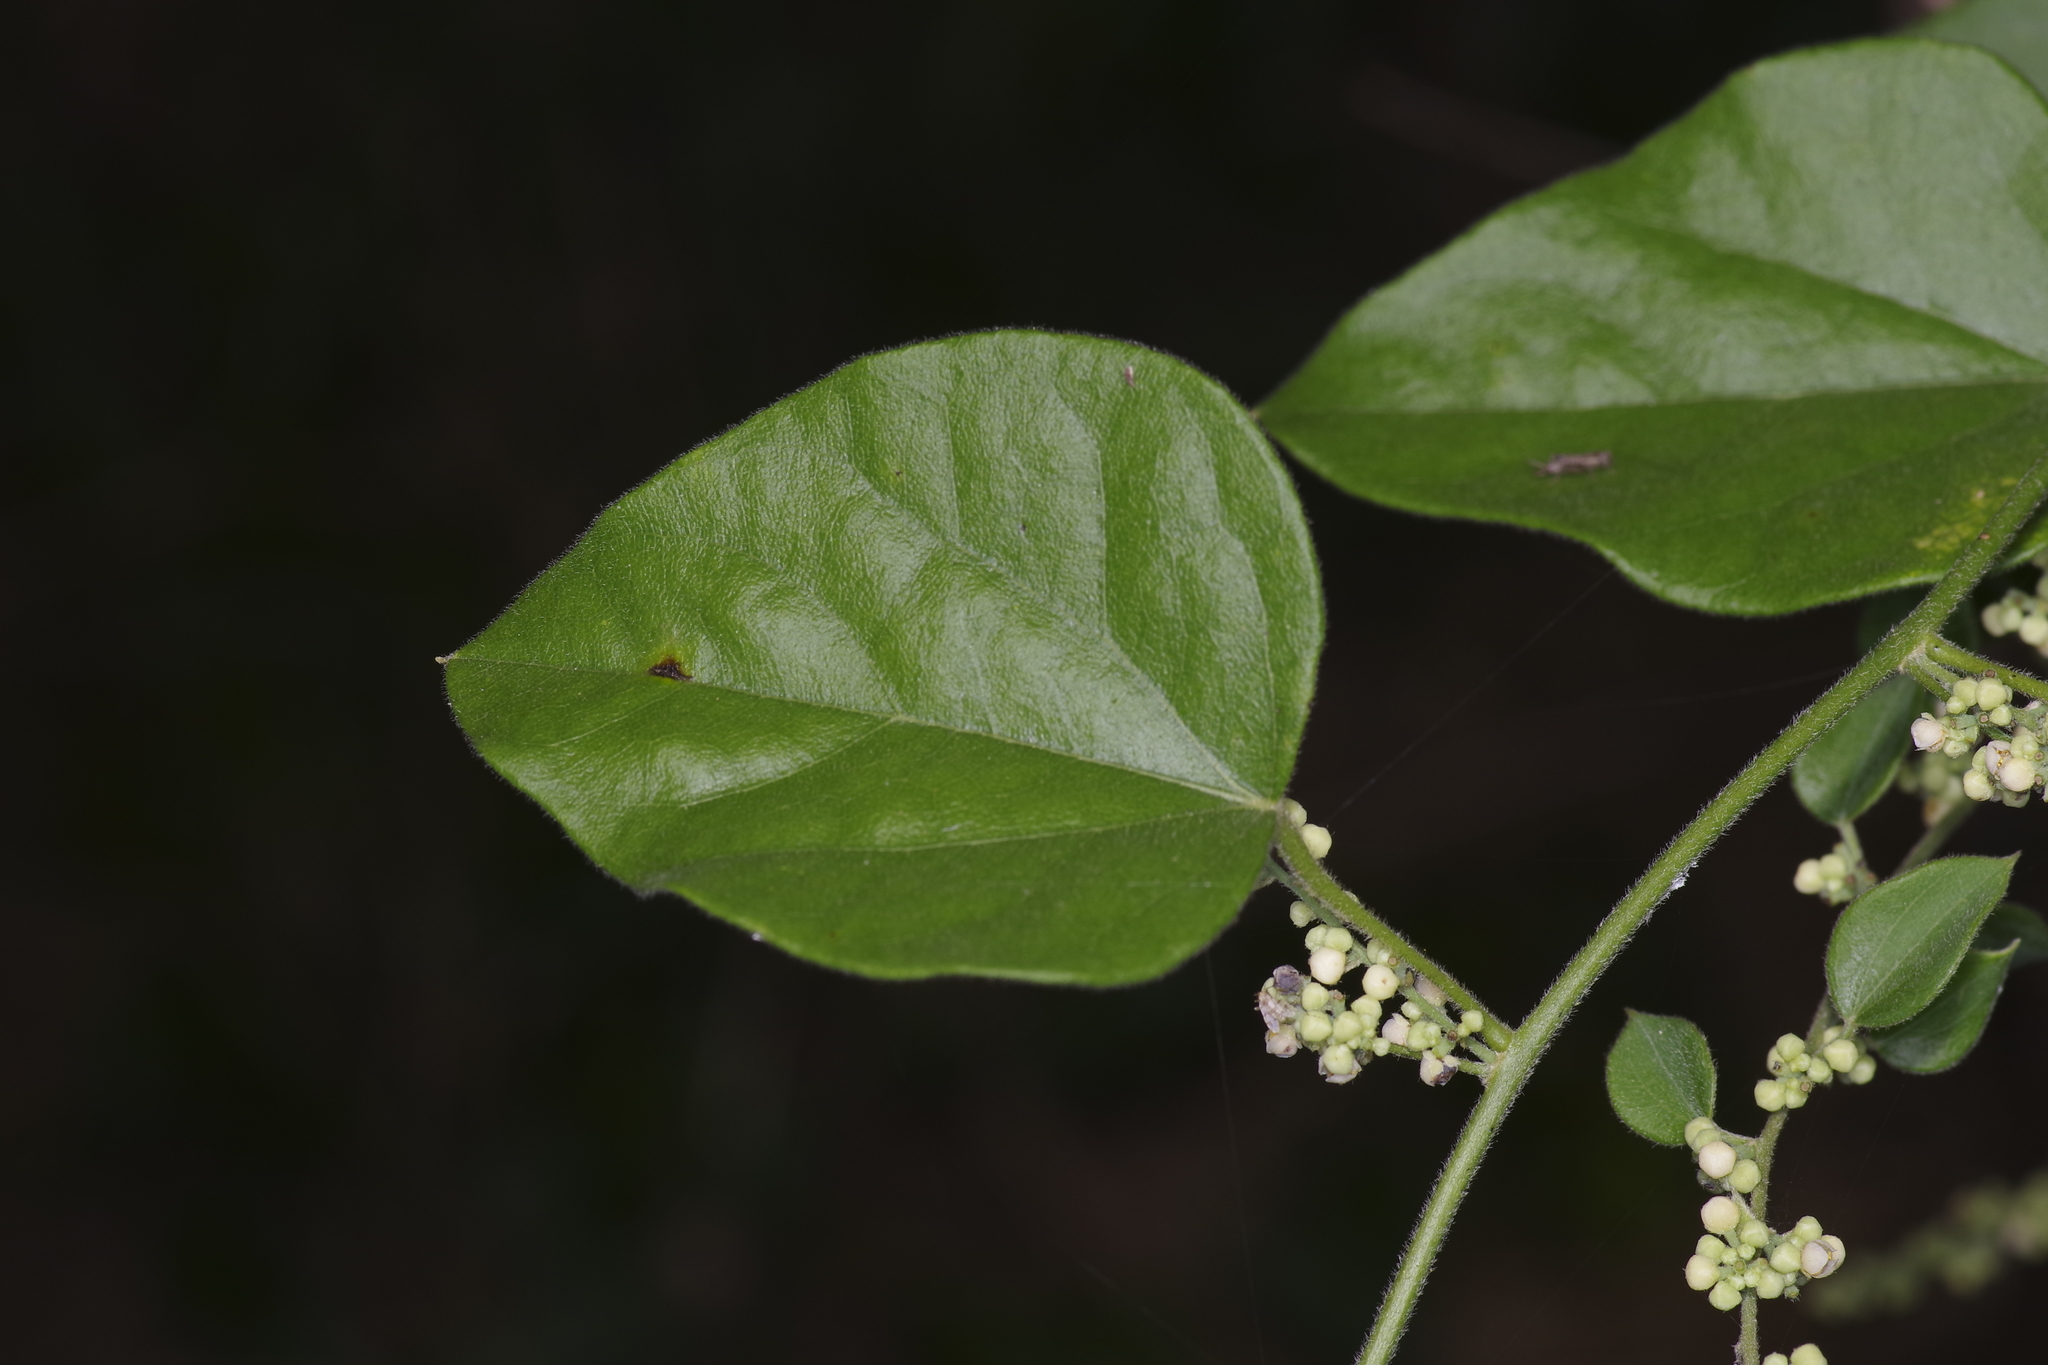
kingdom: Plantae
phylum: Tracheophyta
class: Magnoliopsida
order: Ranunculales
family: Menispermaceae
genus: Cocculus
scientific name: Cocculus carolinus
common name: Carolina moonseed
